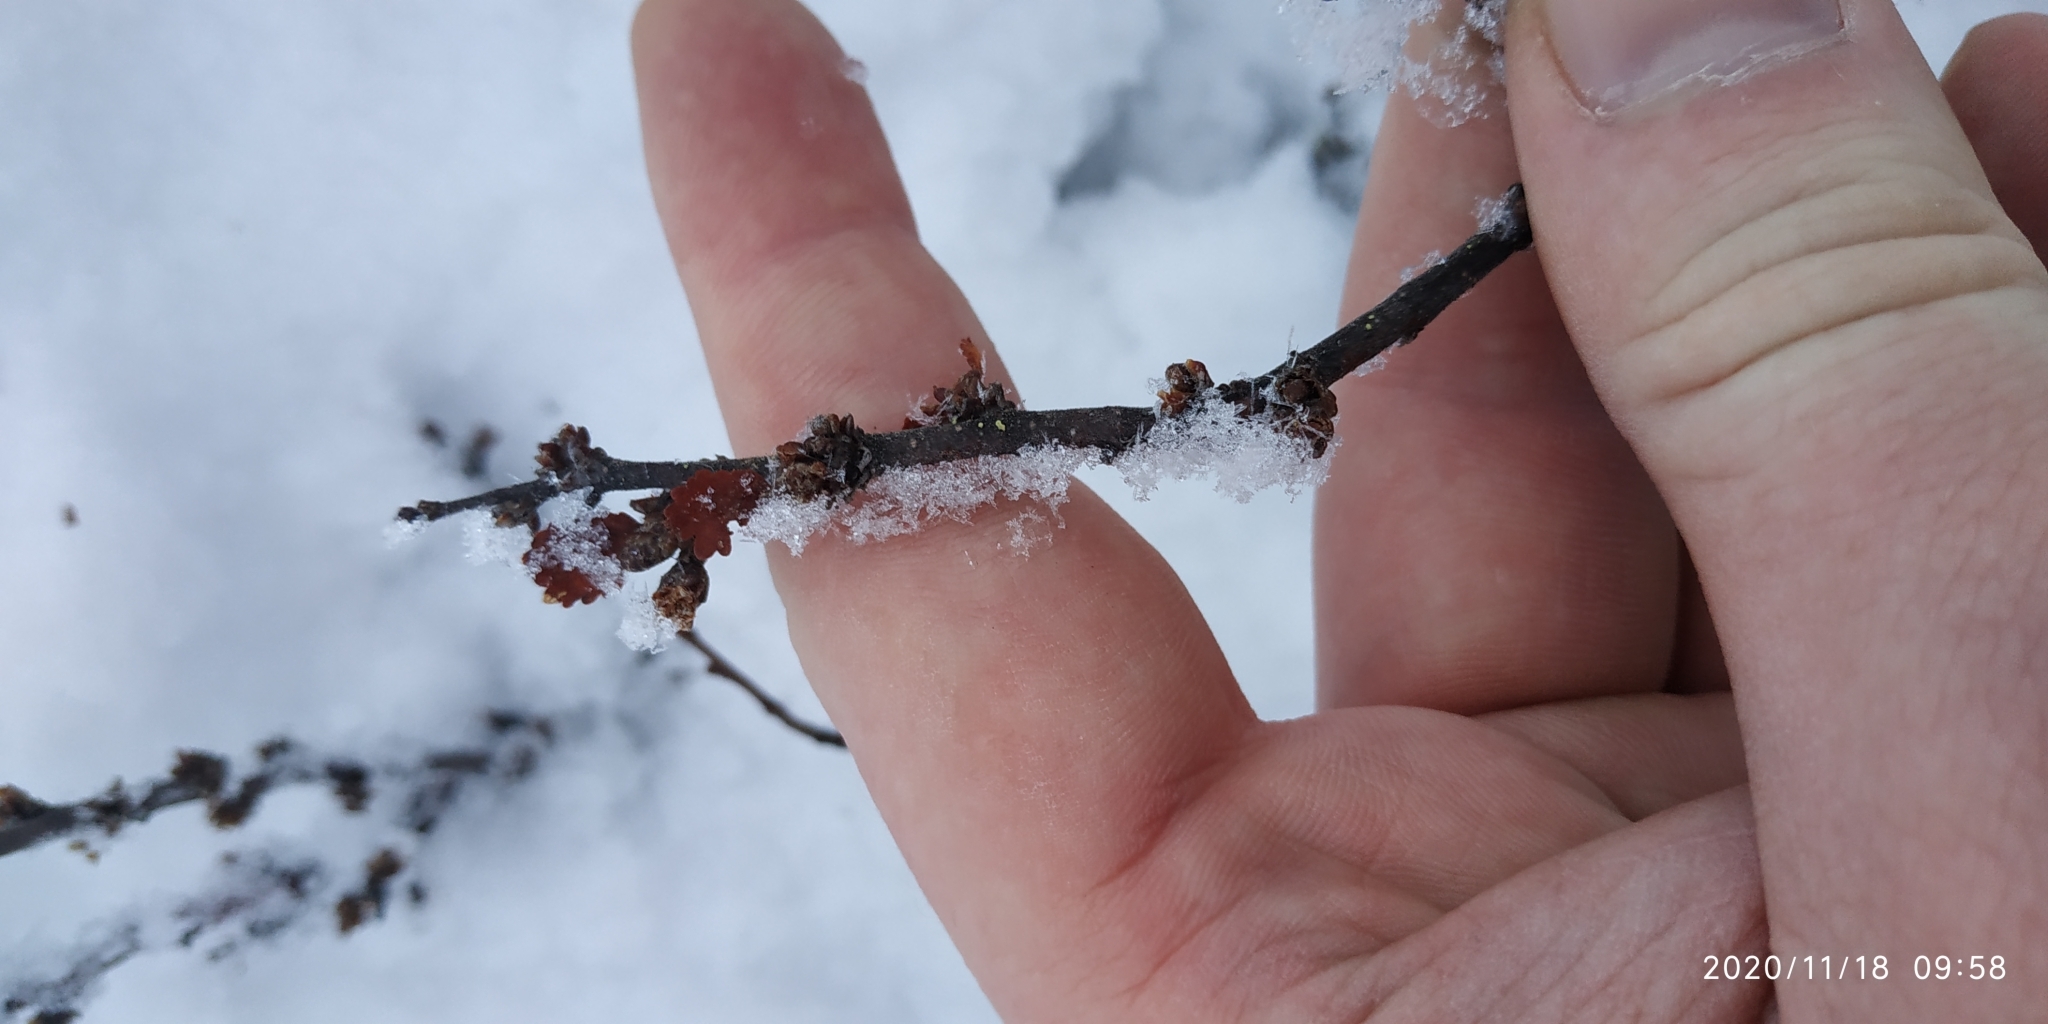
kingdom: Plantae
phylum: Tracheophyta
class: Magnoliopsida
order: Fagales
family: Betulaceae
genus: Betula
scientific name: Betula nana
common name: Arctic dwarf birch
